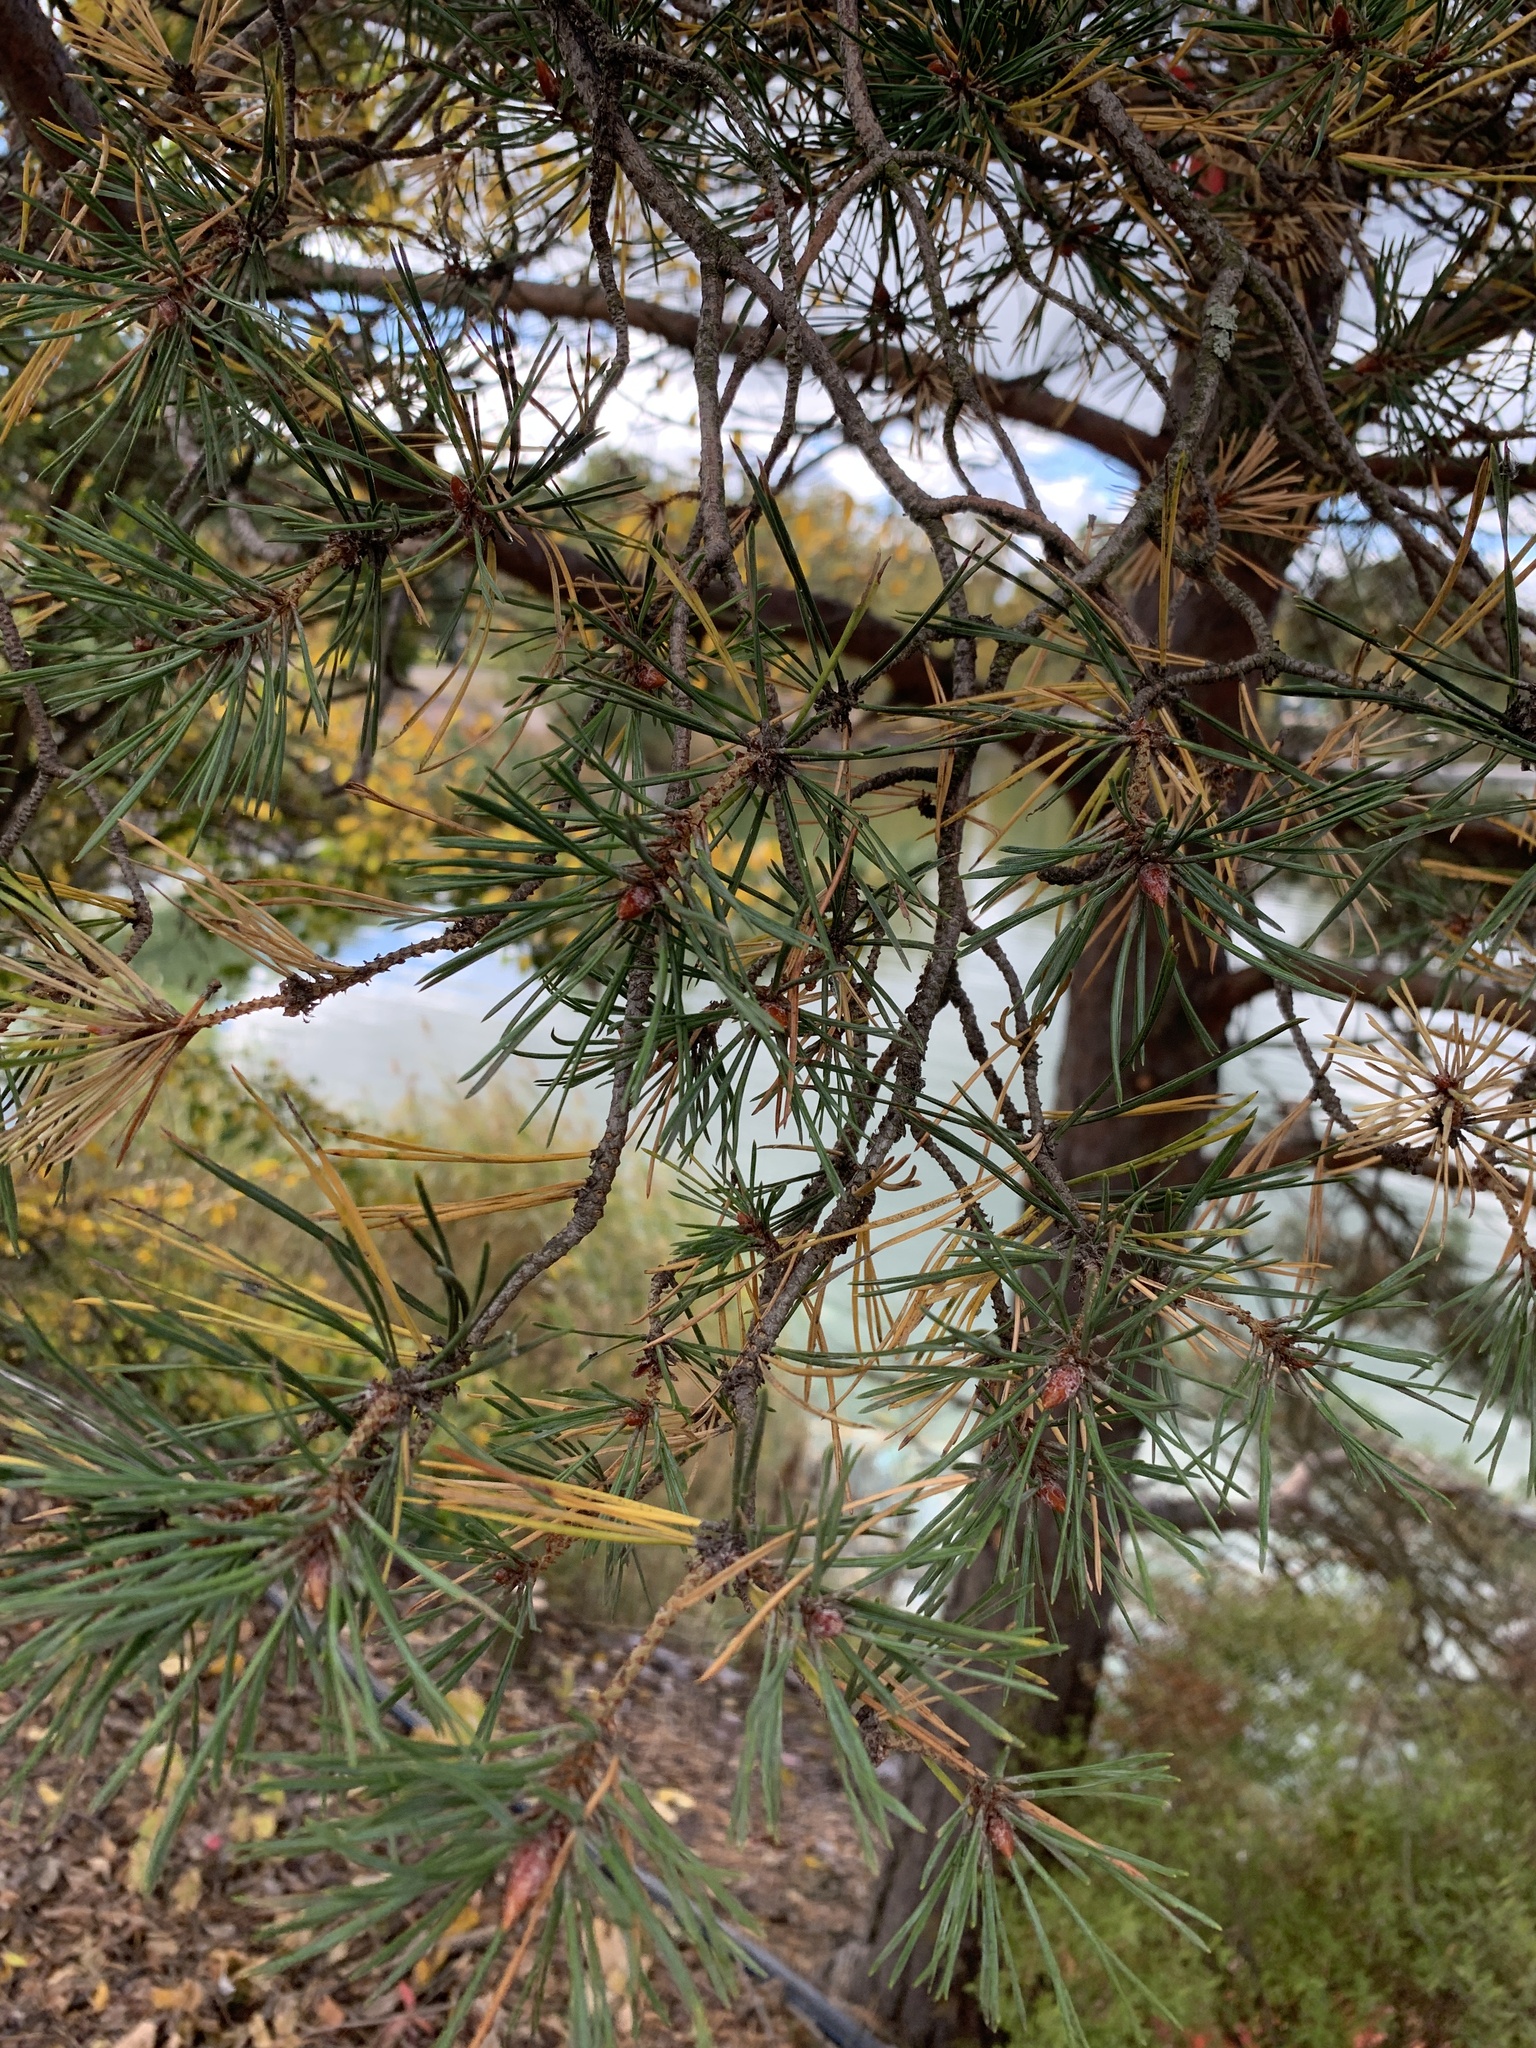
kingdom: Plantae
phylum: Tracheophyta
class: Pinopsida
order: Pinales
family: Pinaceae
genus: Pinus
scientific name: Pinus sylvestris
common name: Scots pine
